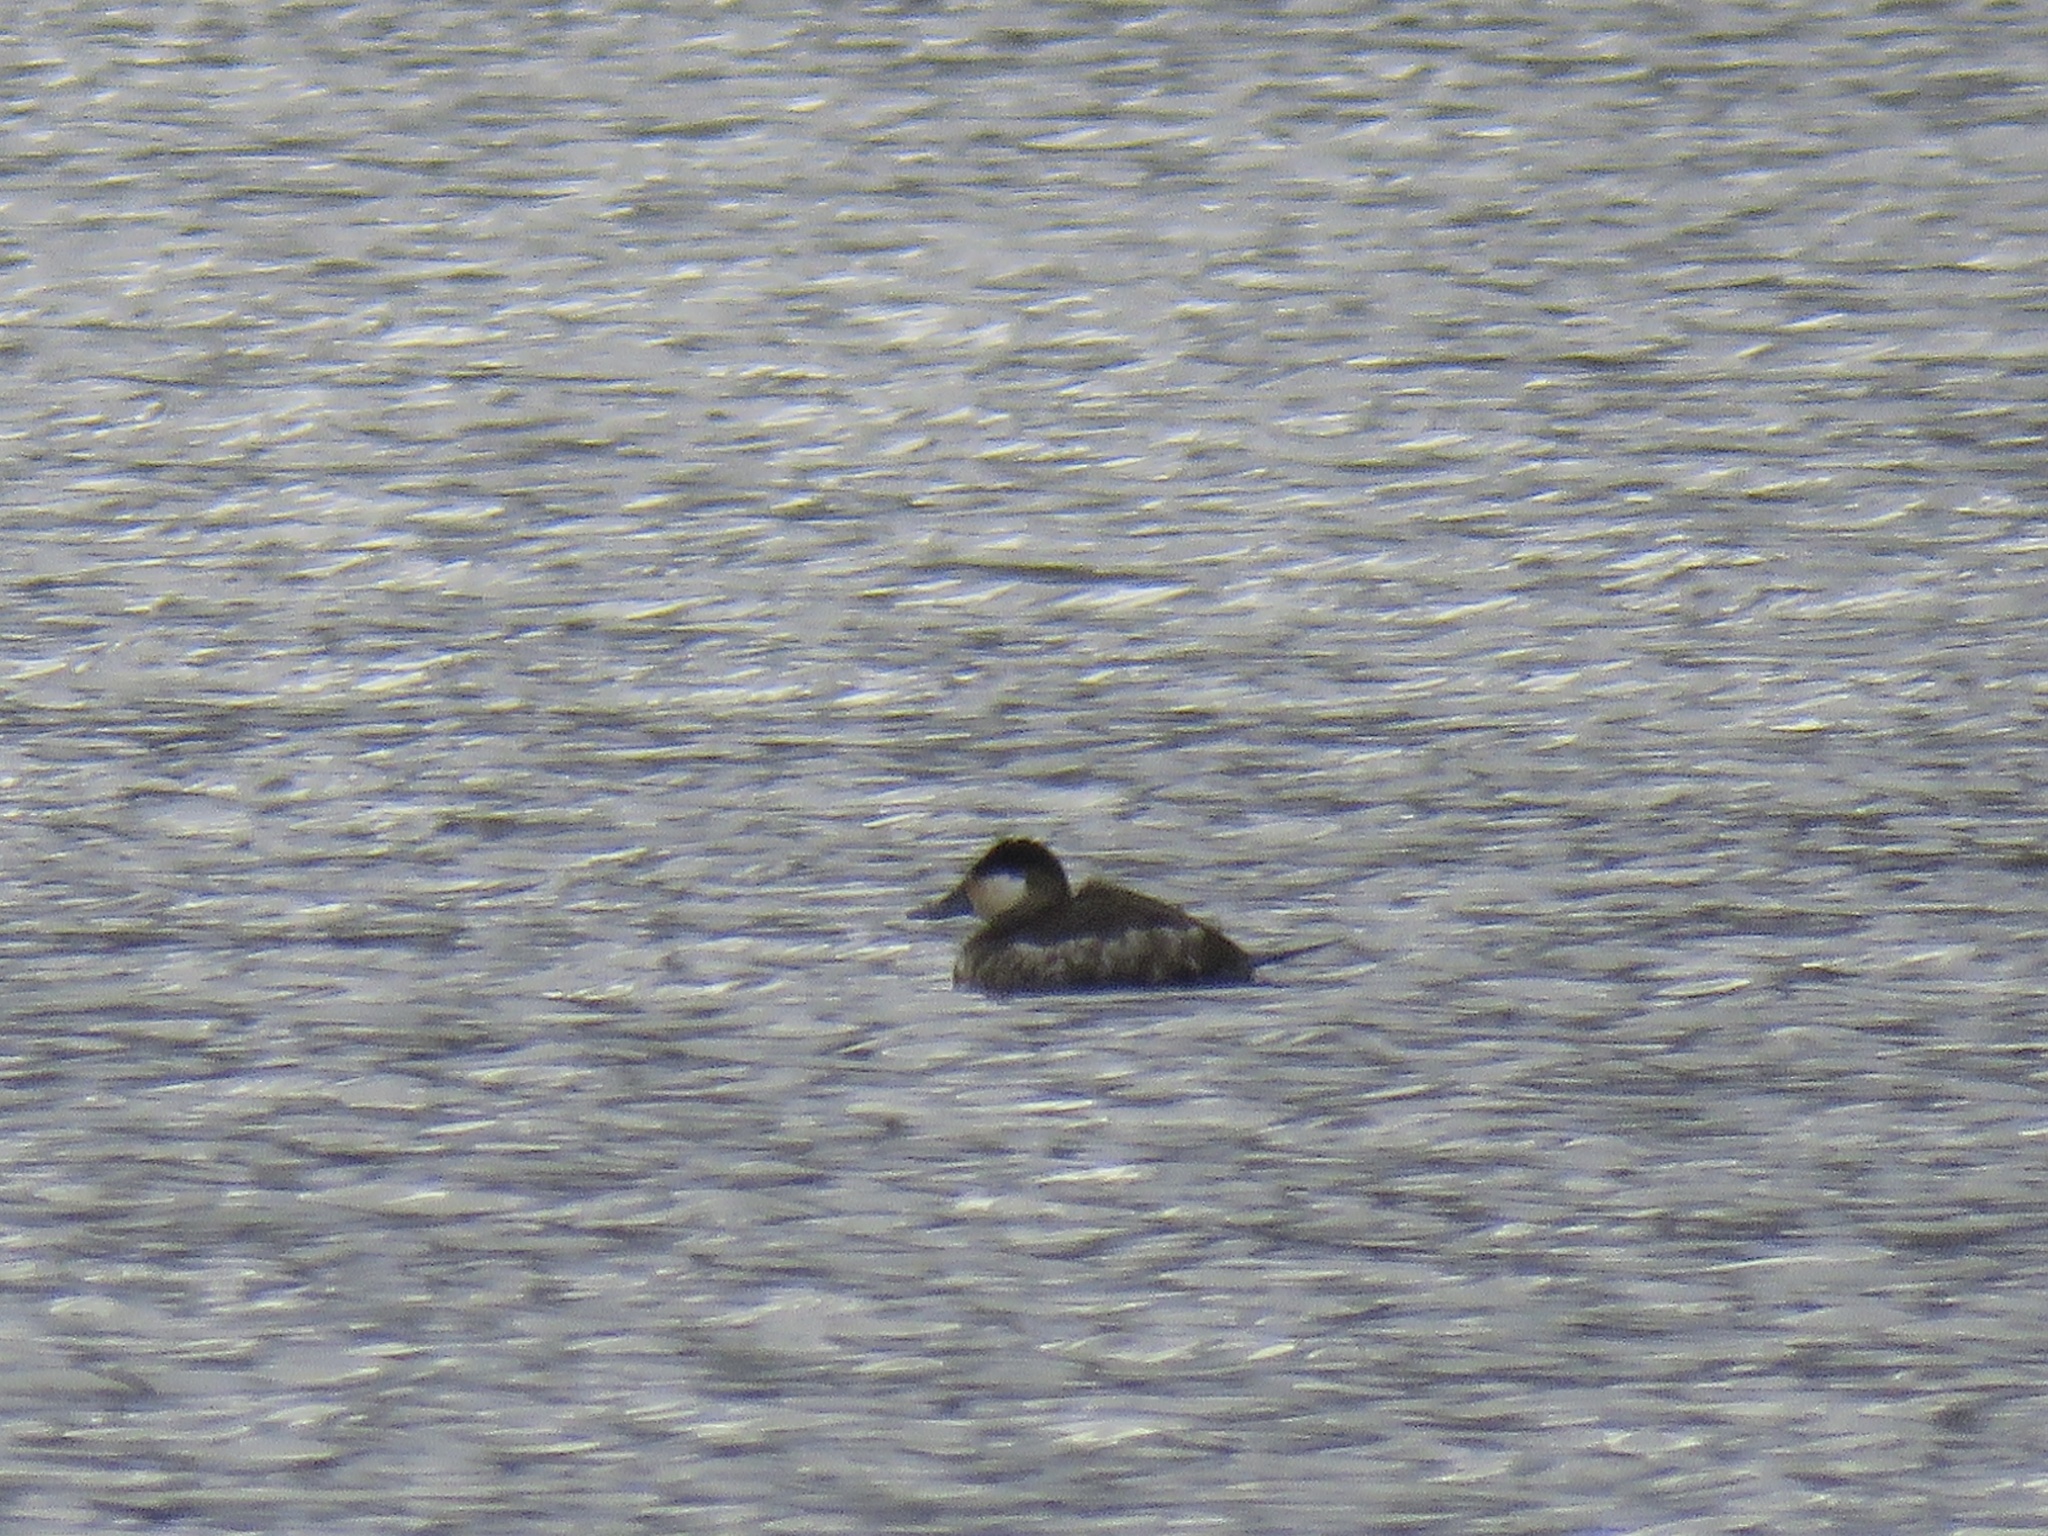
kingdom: Animalia
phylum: Chordata
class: Aves
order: Anseriformes
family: Anatidae
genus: Oxyura
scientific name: Oxyura jamaicensis
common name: Ruddy duck
